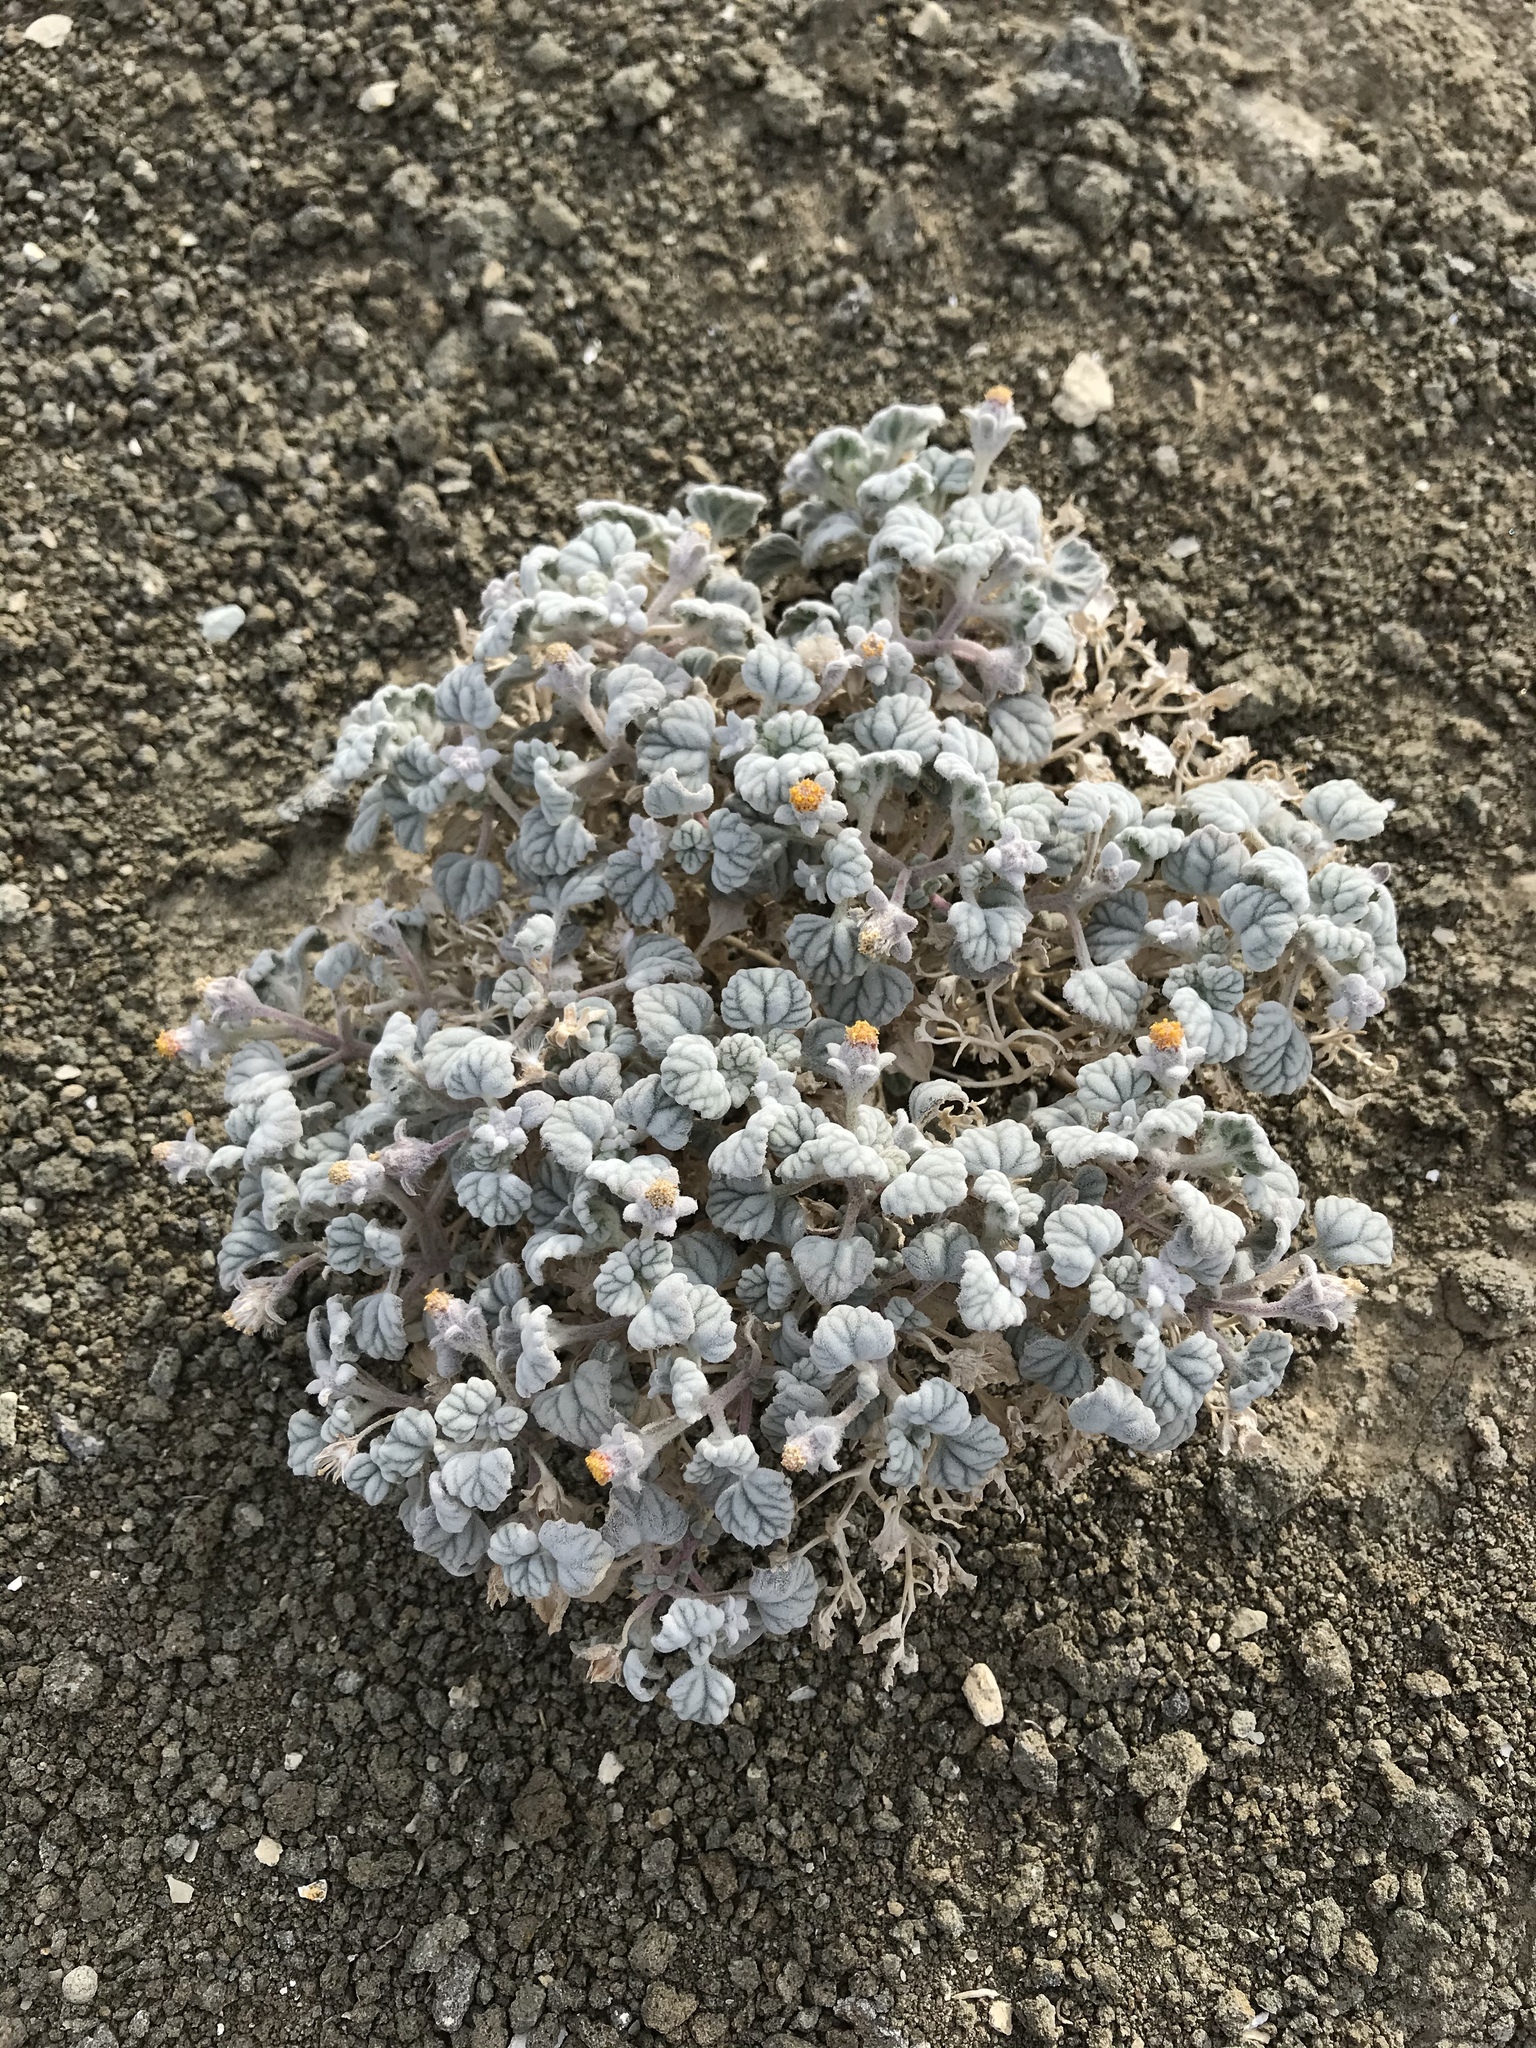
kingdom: Plantae
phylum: Tracheophyta
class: Magnoliopsida
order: Asterales
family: Asteraceae
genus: Psathyrotes
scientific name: Psathyrotes ramosissima
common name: Turtleback
